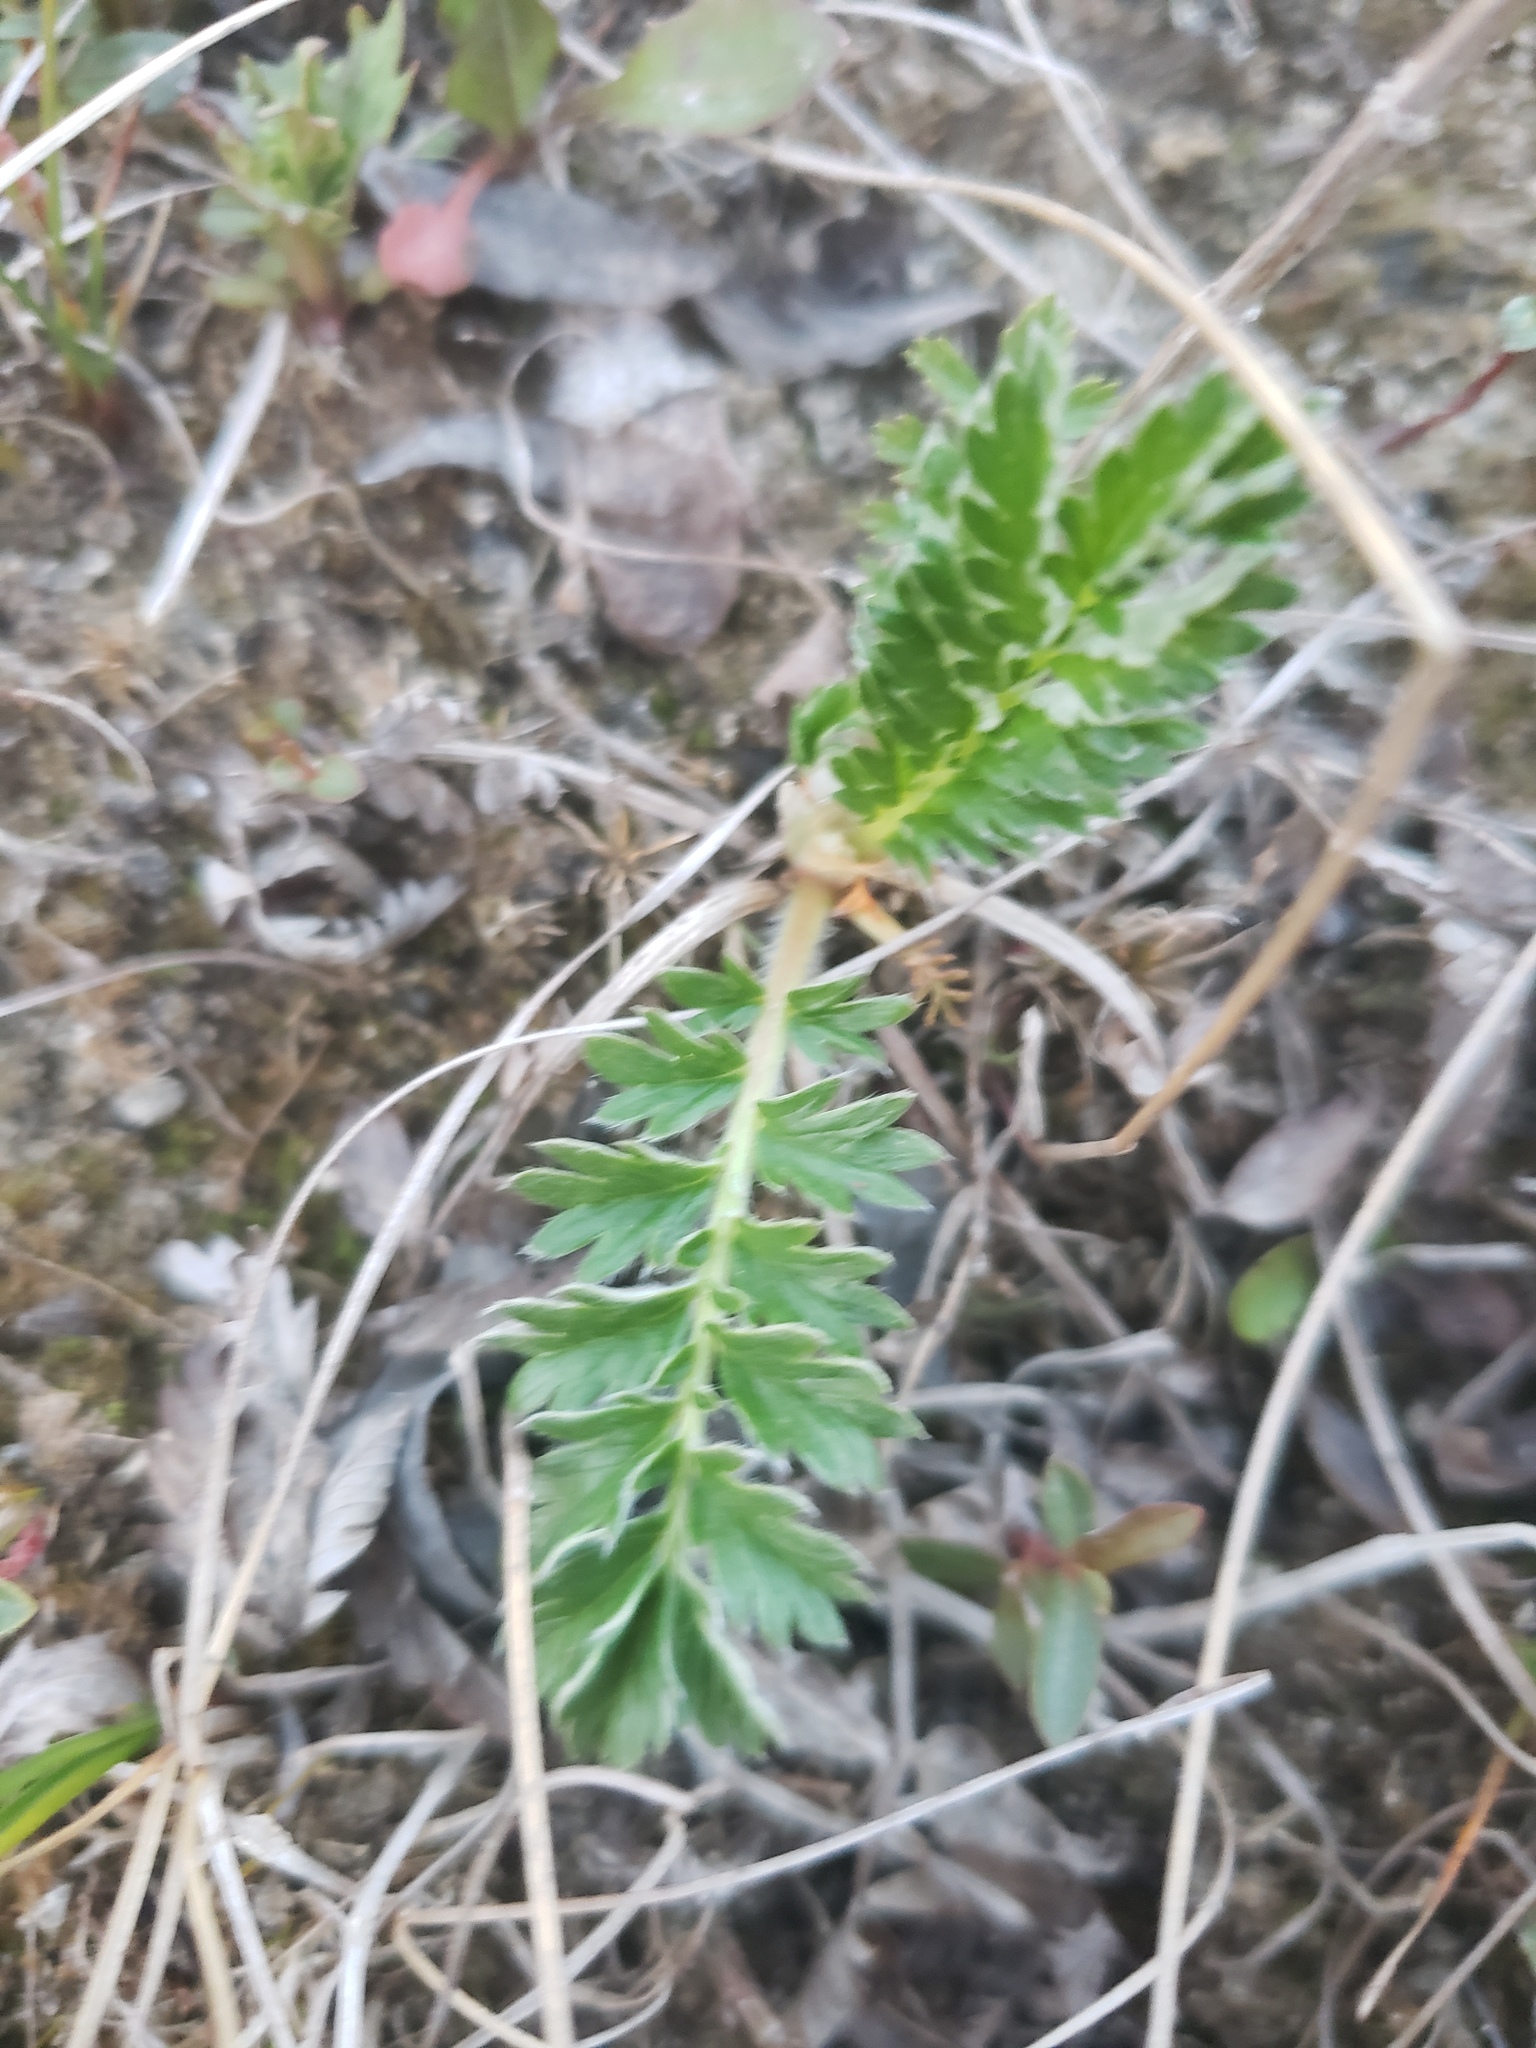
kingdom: Plantae
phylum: Tracheophyta
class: Magnoliopsida
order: Rosales
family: Rosaceae
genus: Argentina
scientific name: Argentina anserina
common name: Common silverweed
